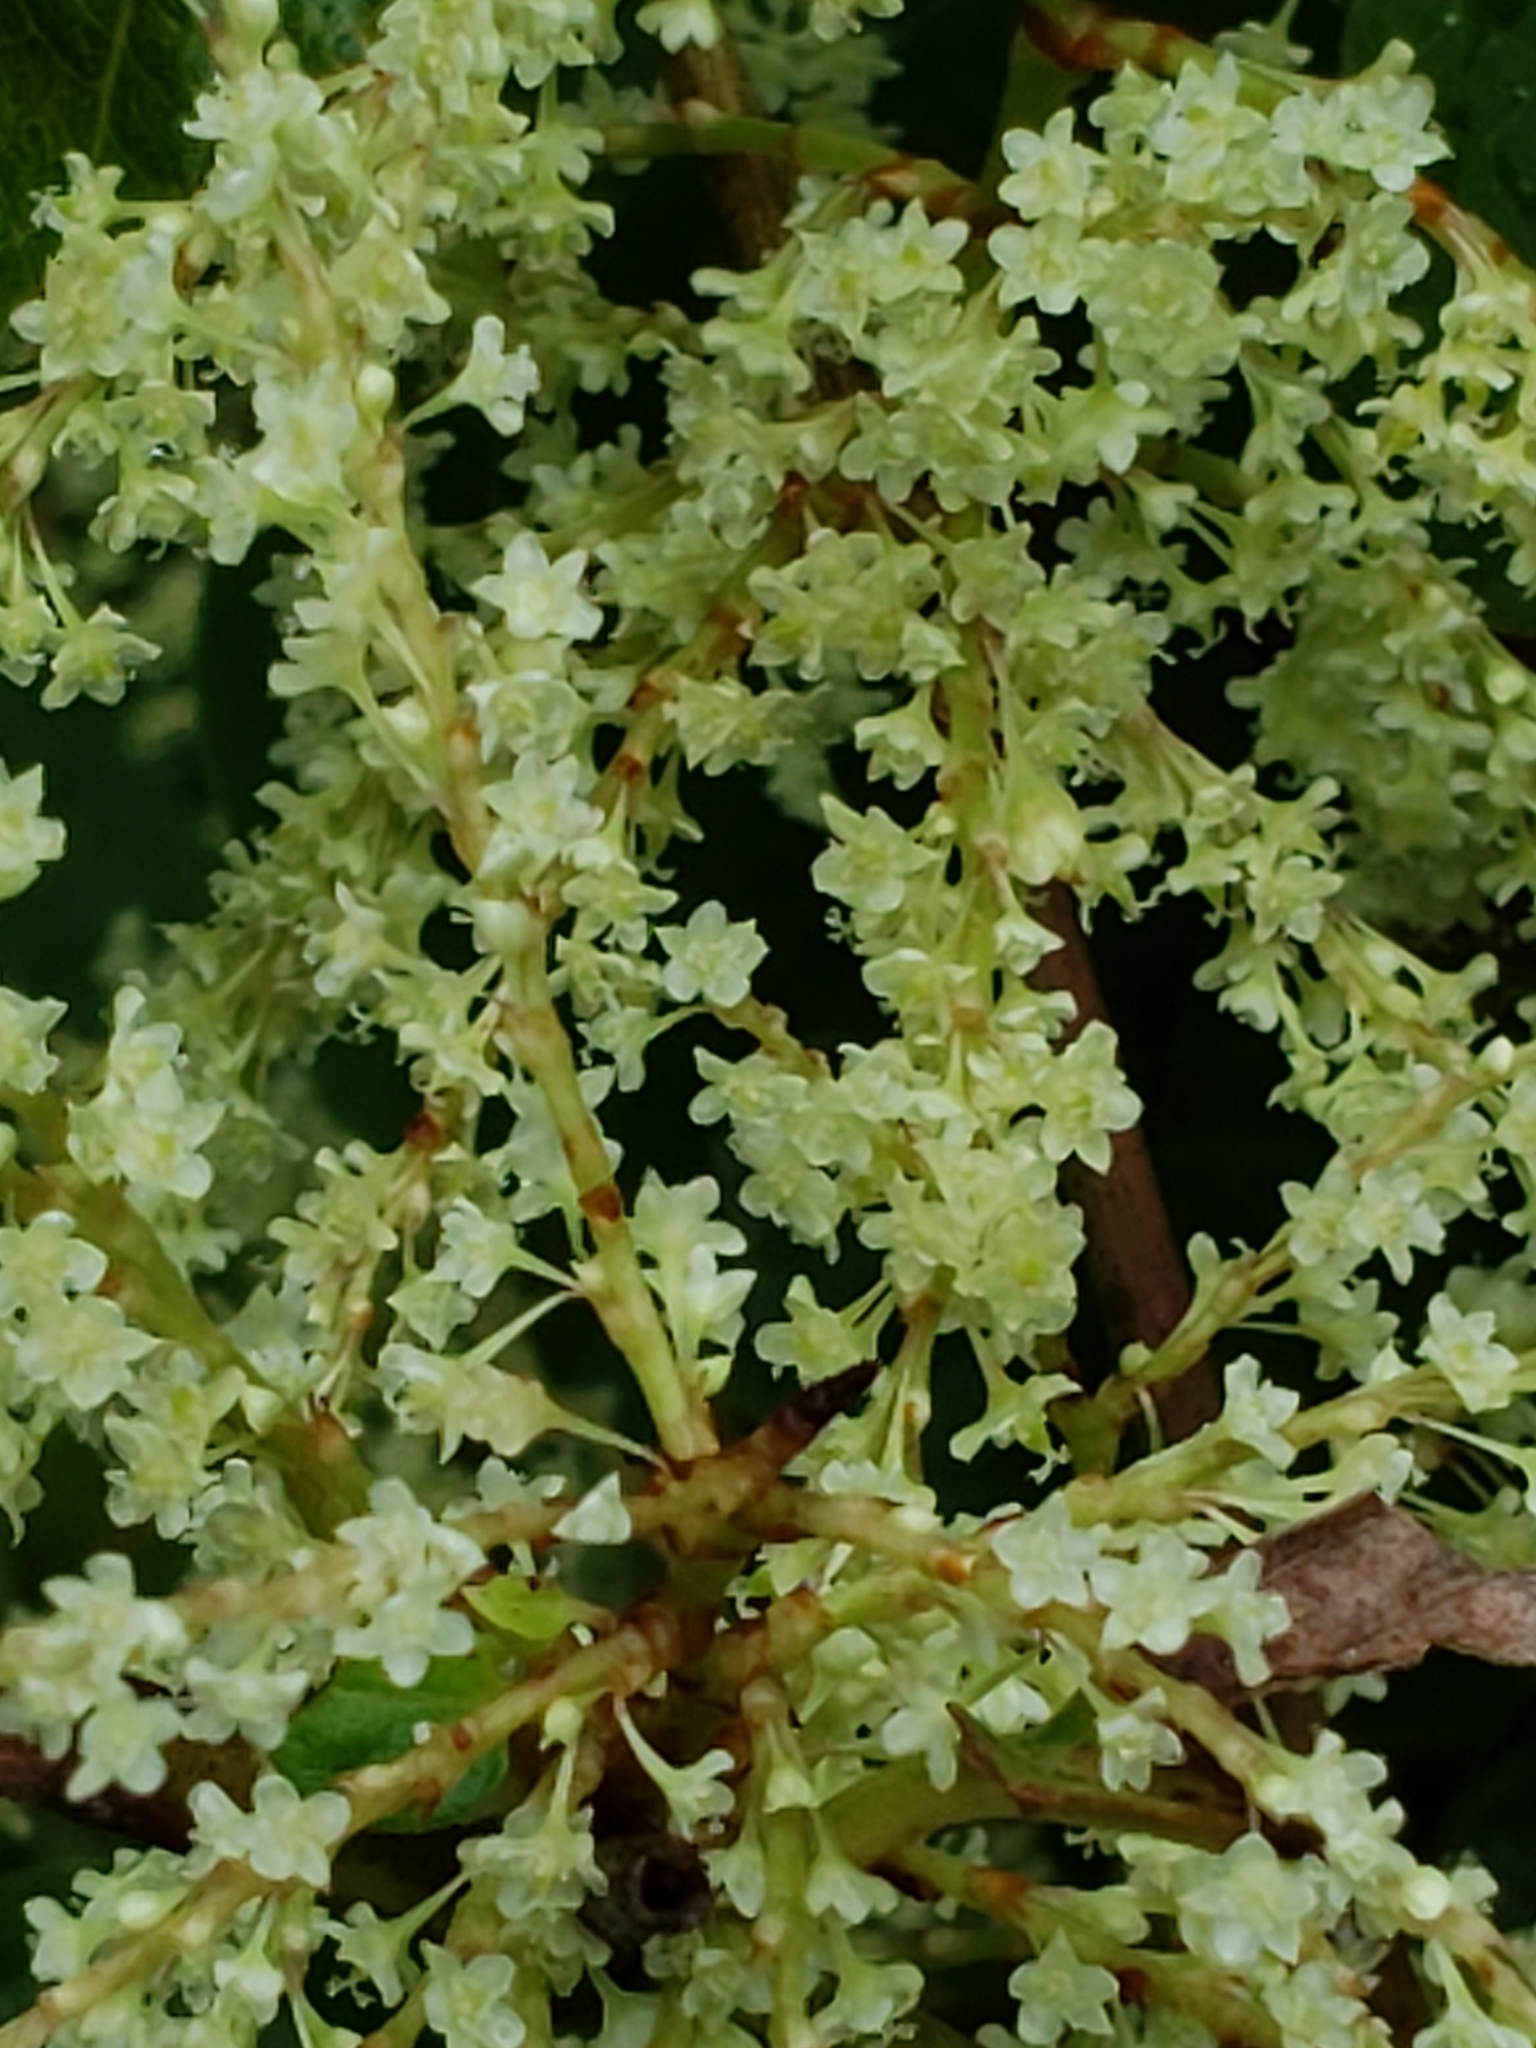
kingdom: Plantae
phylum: Tracheophyta
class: Magnoliopsida
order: Caryophyllales
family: Polygonaceae
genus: Reynoutria
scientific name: Reynoutria japonica
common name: Japanese knotweed
